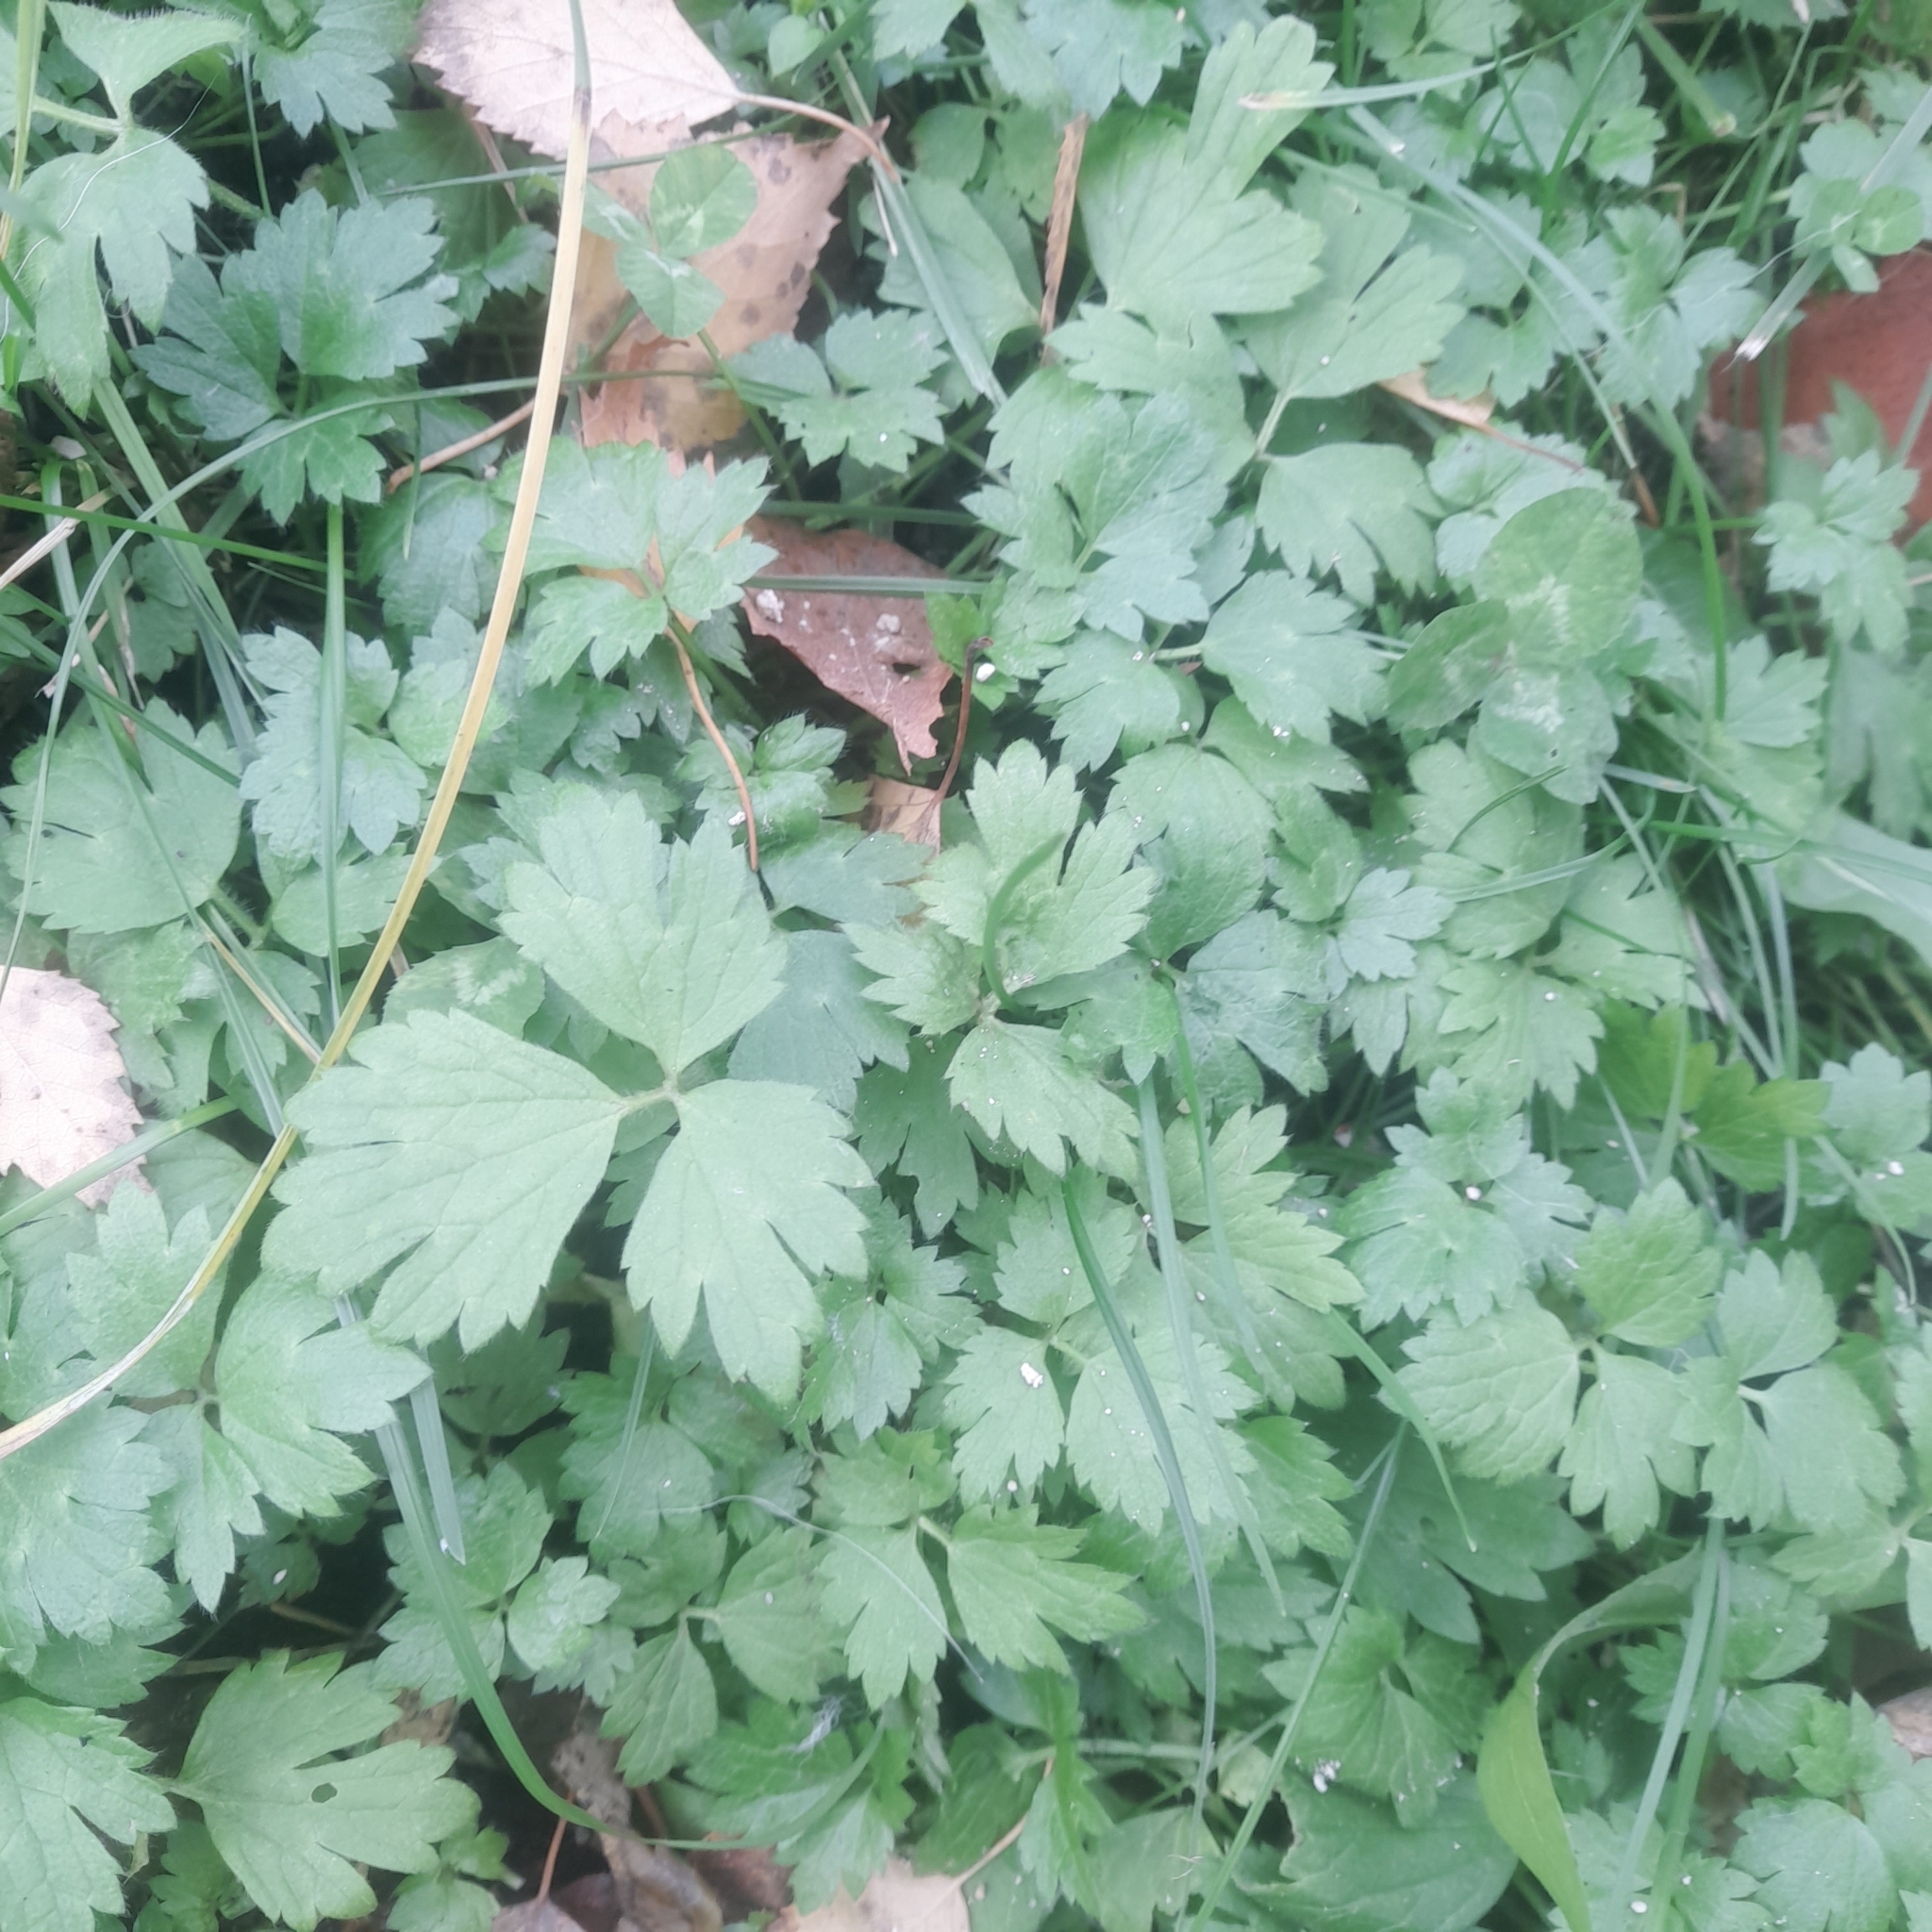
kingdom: Plantae
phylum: Tracheophyta
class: Magnoliopsida
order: Ranunculales
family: Ranunculaceae
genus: Ranunculus
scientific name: Ranunculus repens
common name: Creeping buttercup
